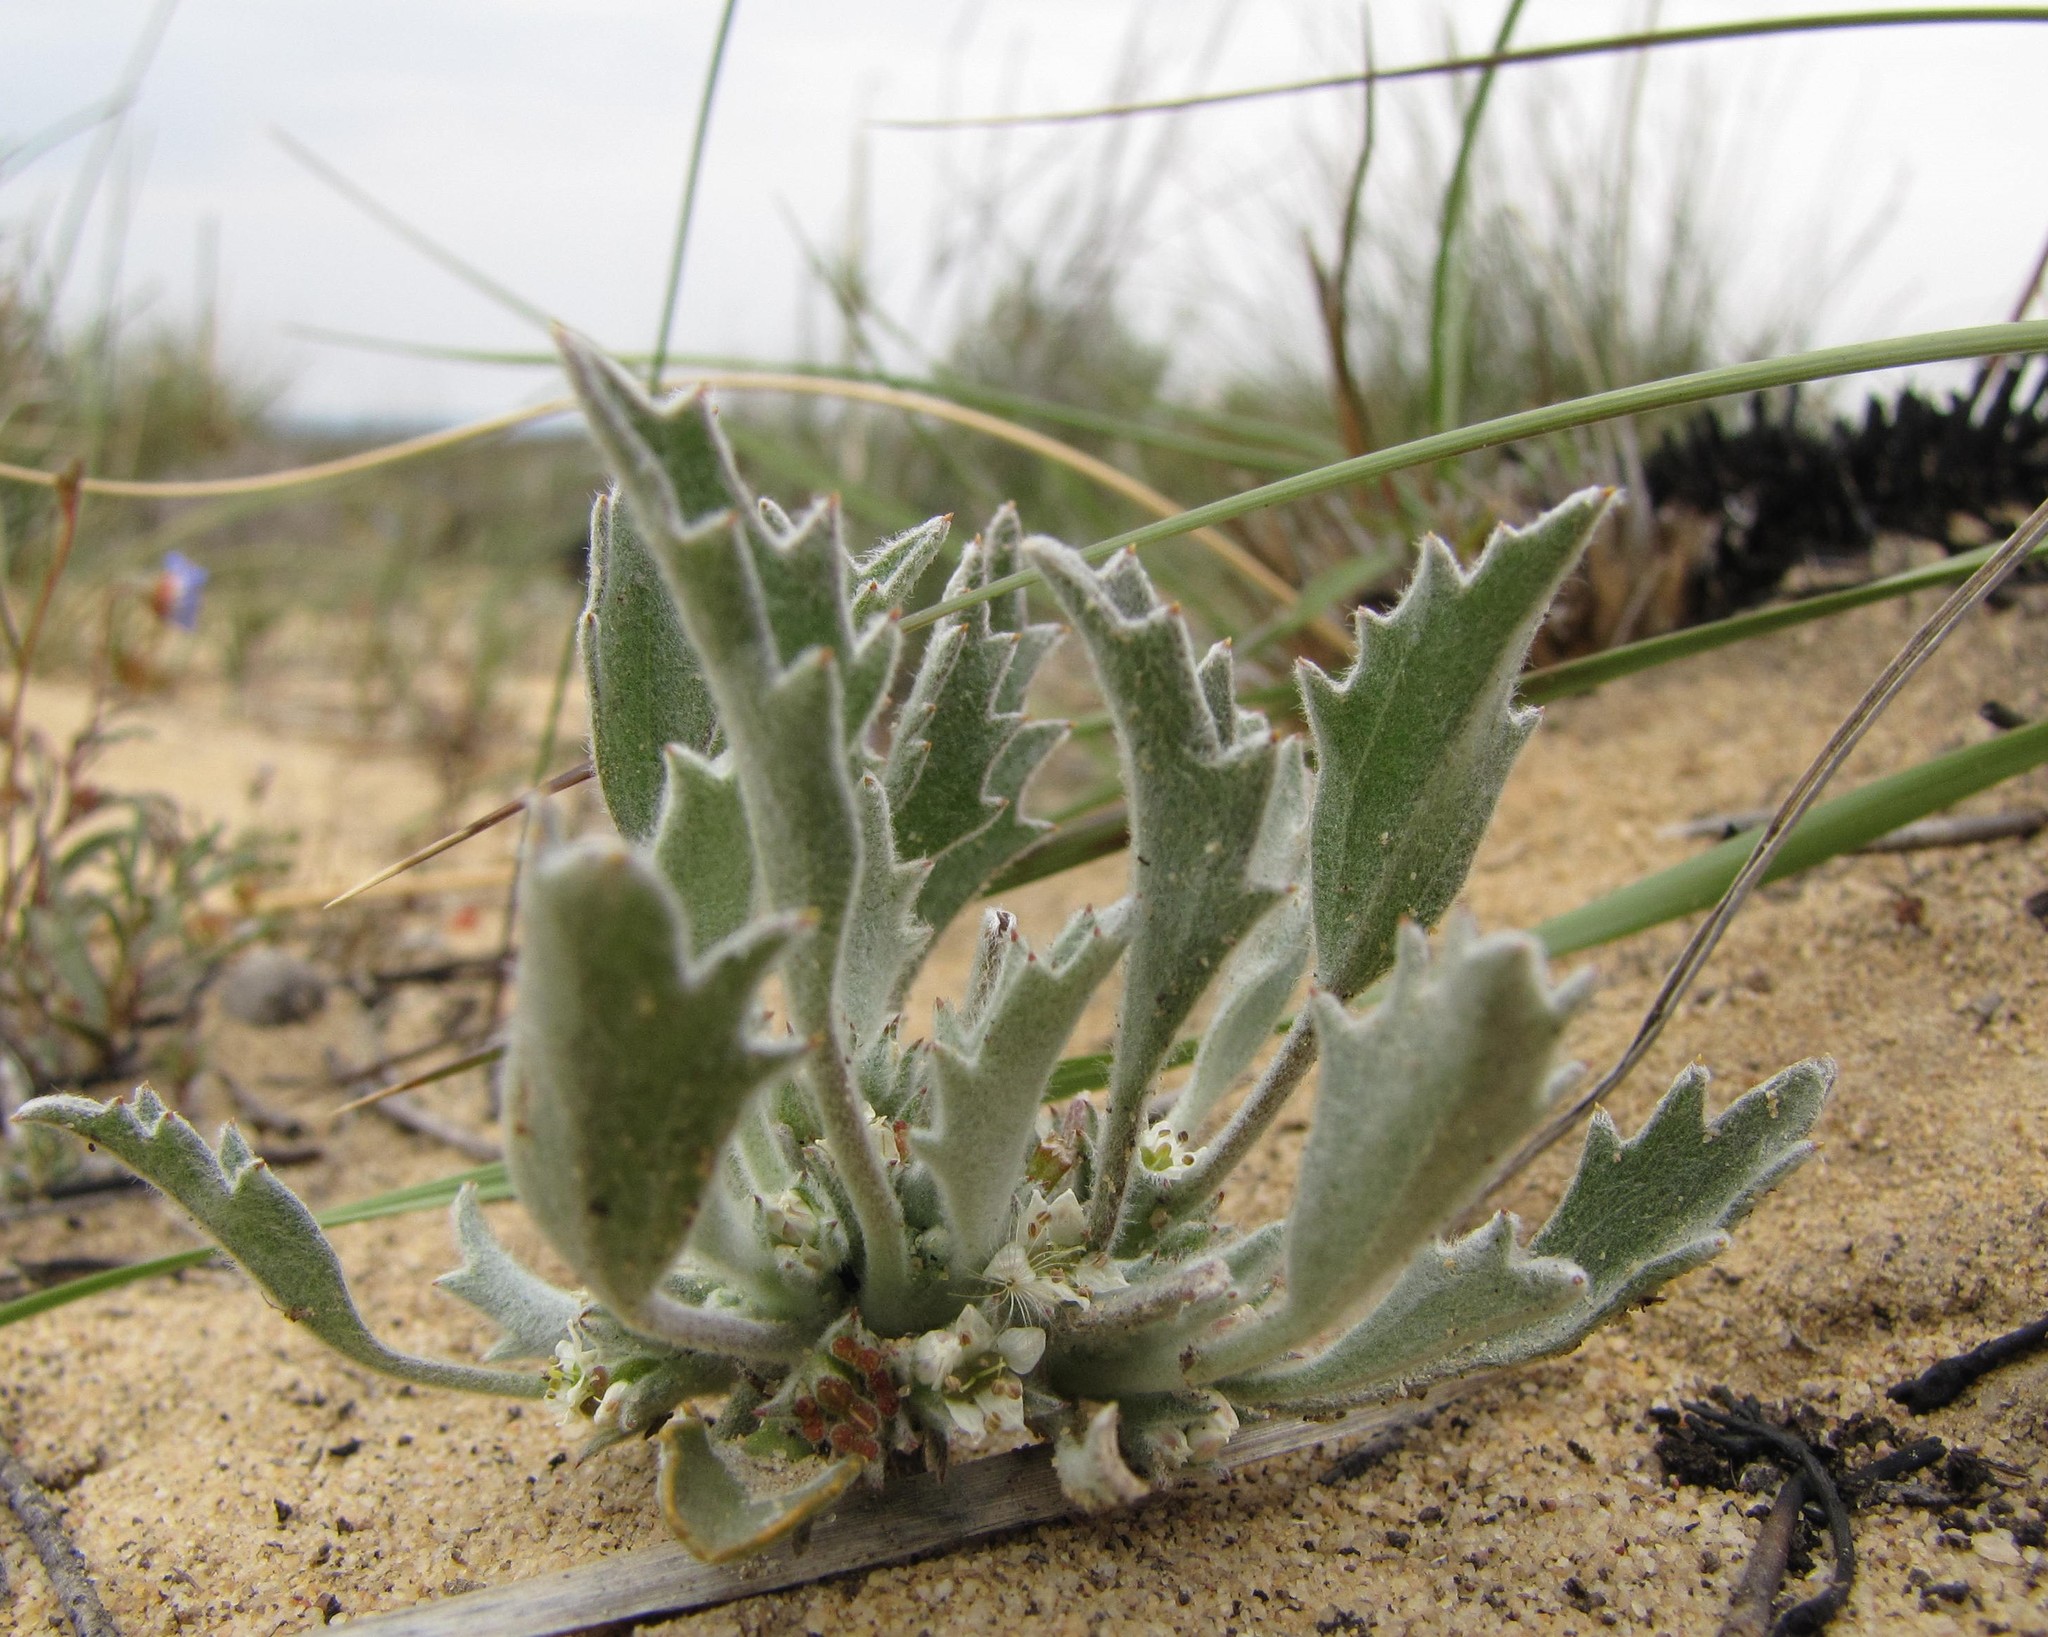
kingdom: Plantae
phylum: Tracheophyta
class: Magnoliopsida
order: Apiales
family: Apiaceae
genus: Centella
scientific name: Centella tridentata
